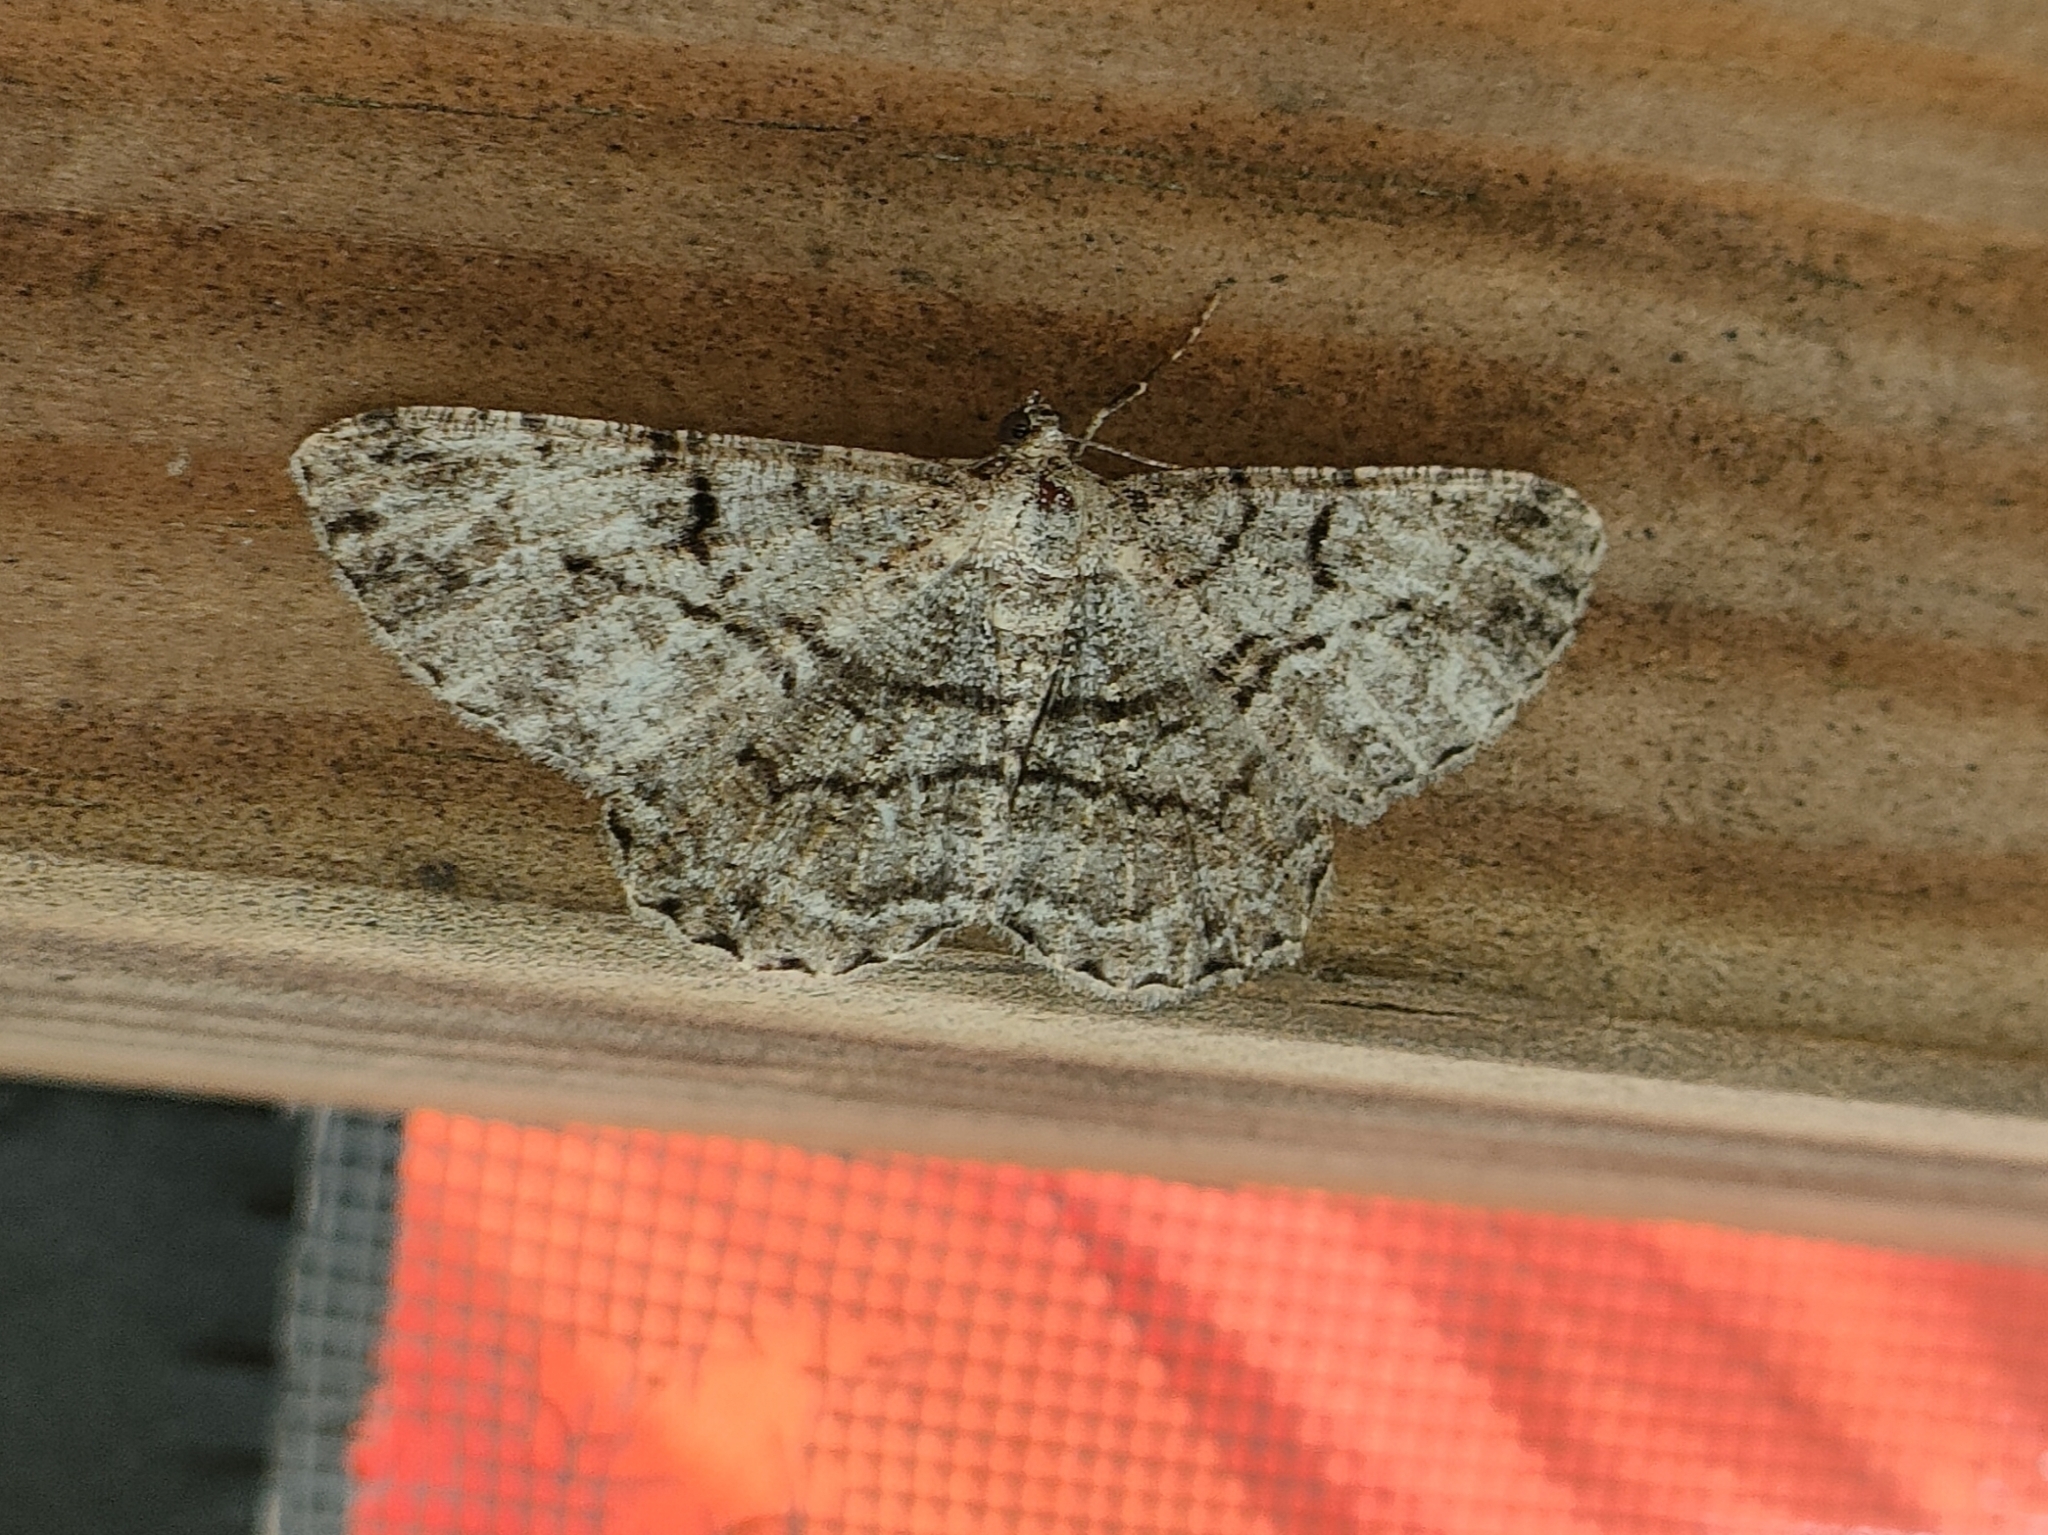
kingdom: Animalia
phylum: Arthropoda
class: Insecta
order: Lepidoptera
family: Geometridae
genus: Peribatodes
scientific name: Peribatodes rhomboidaria
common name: Willow beauty
